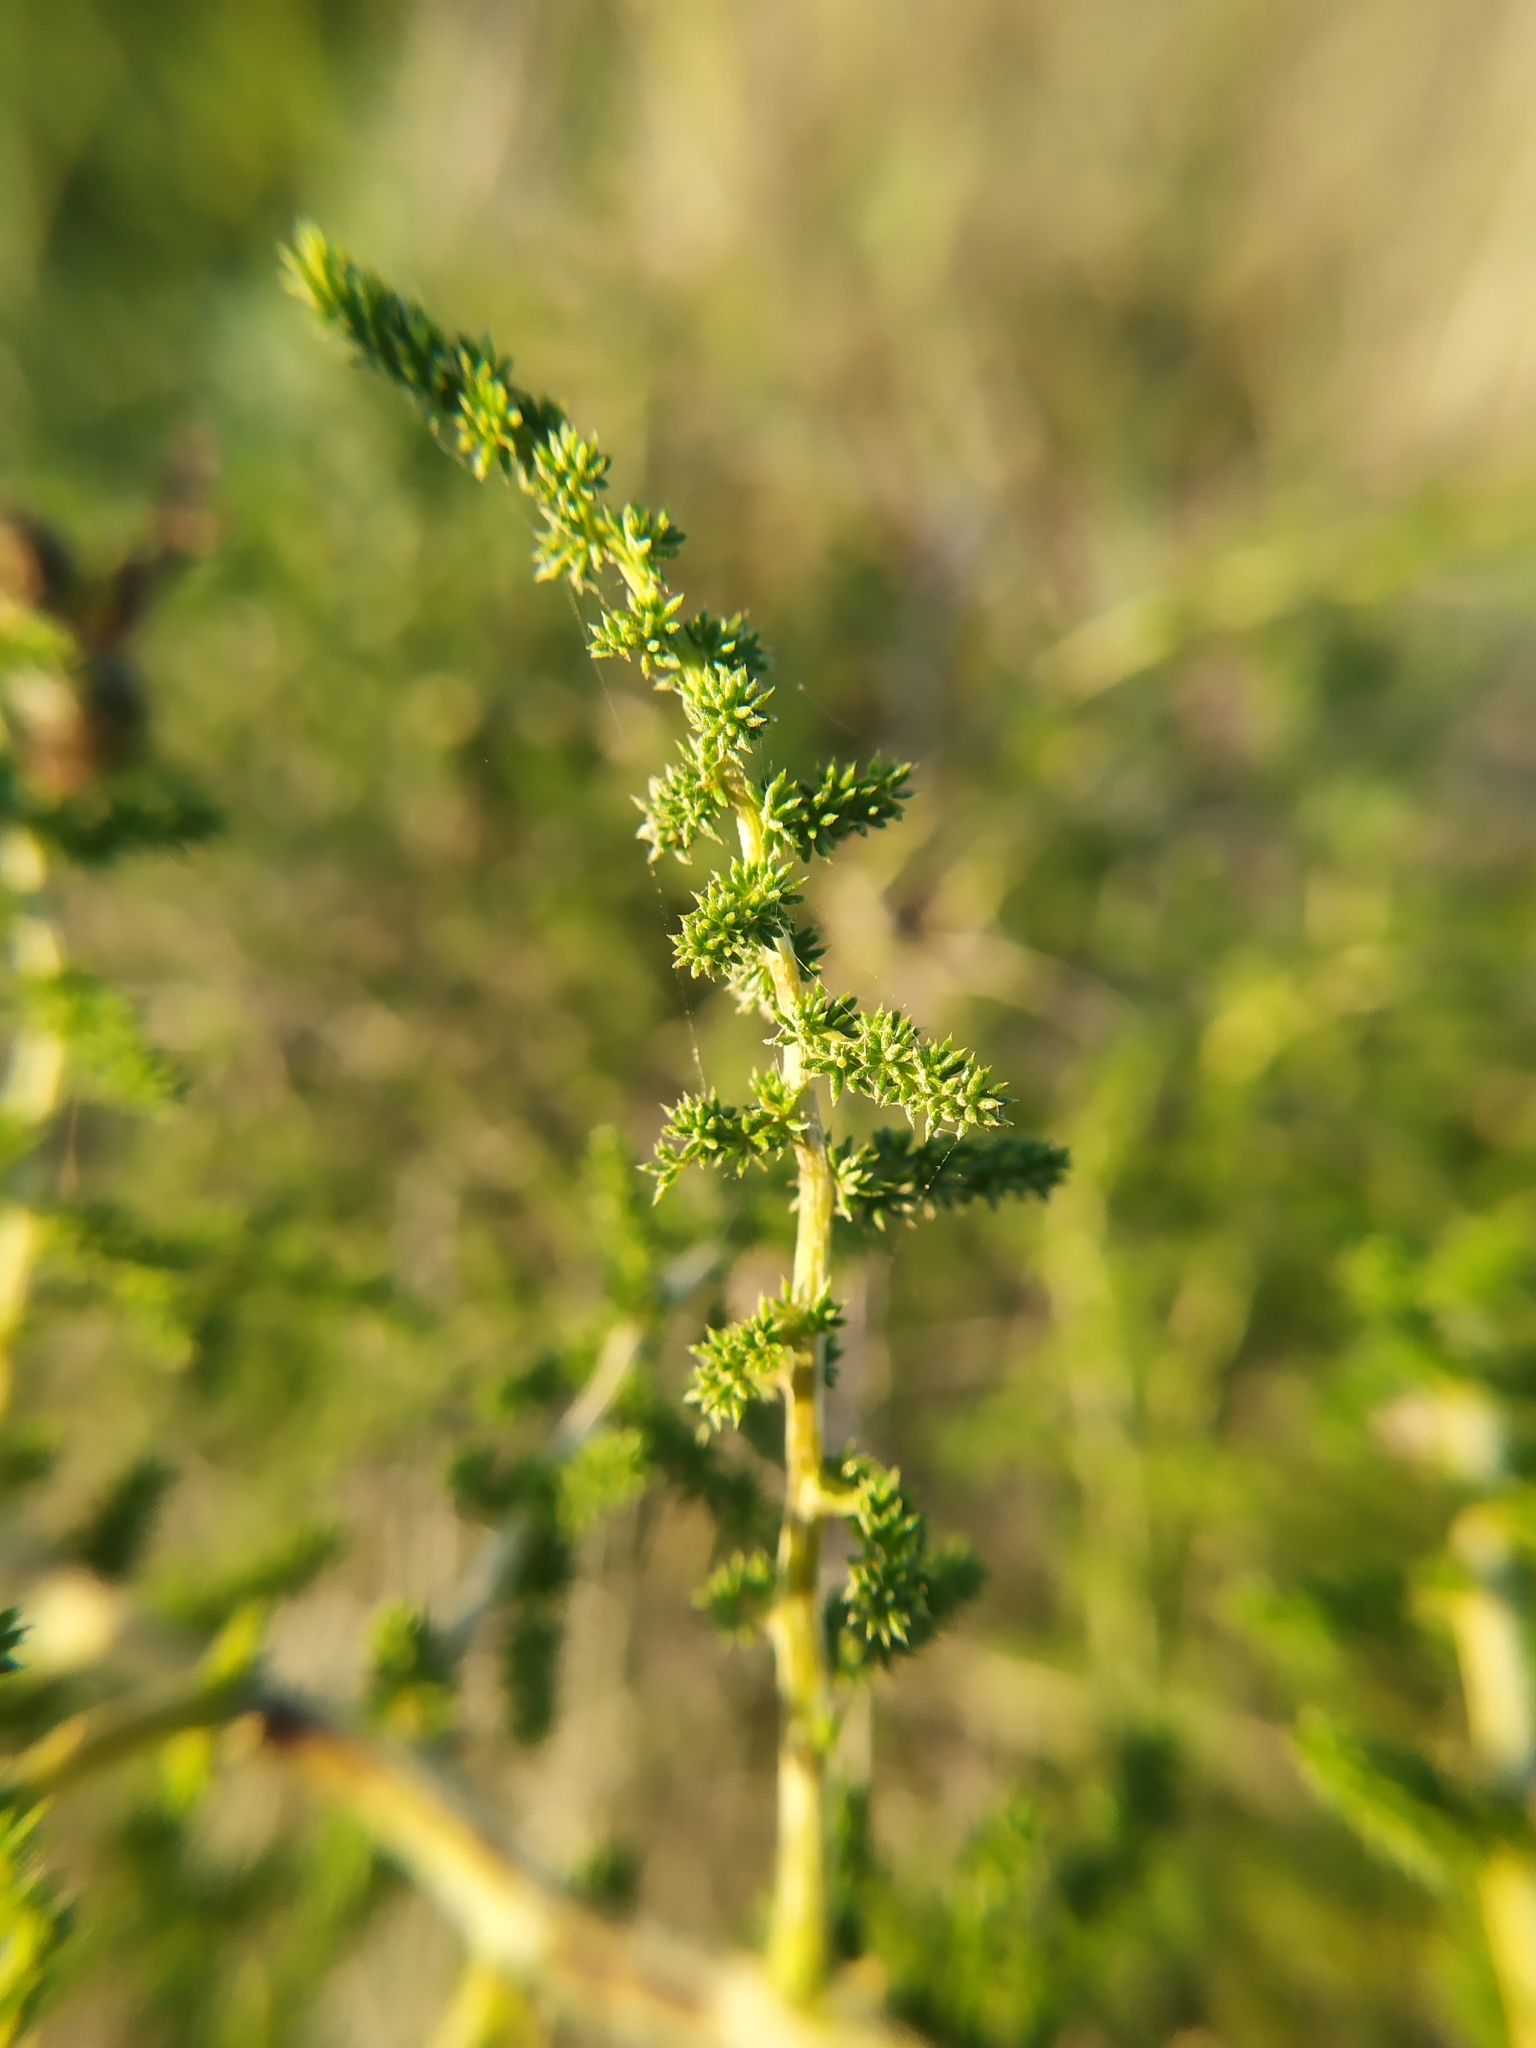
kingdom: Plantae
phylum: Tracheophyta
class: Liliopsida
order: Asparagales
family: Asparagaceae
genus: Asparagus
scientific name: Asparagus acutifolius
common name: Wild asparagus
